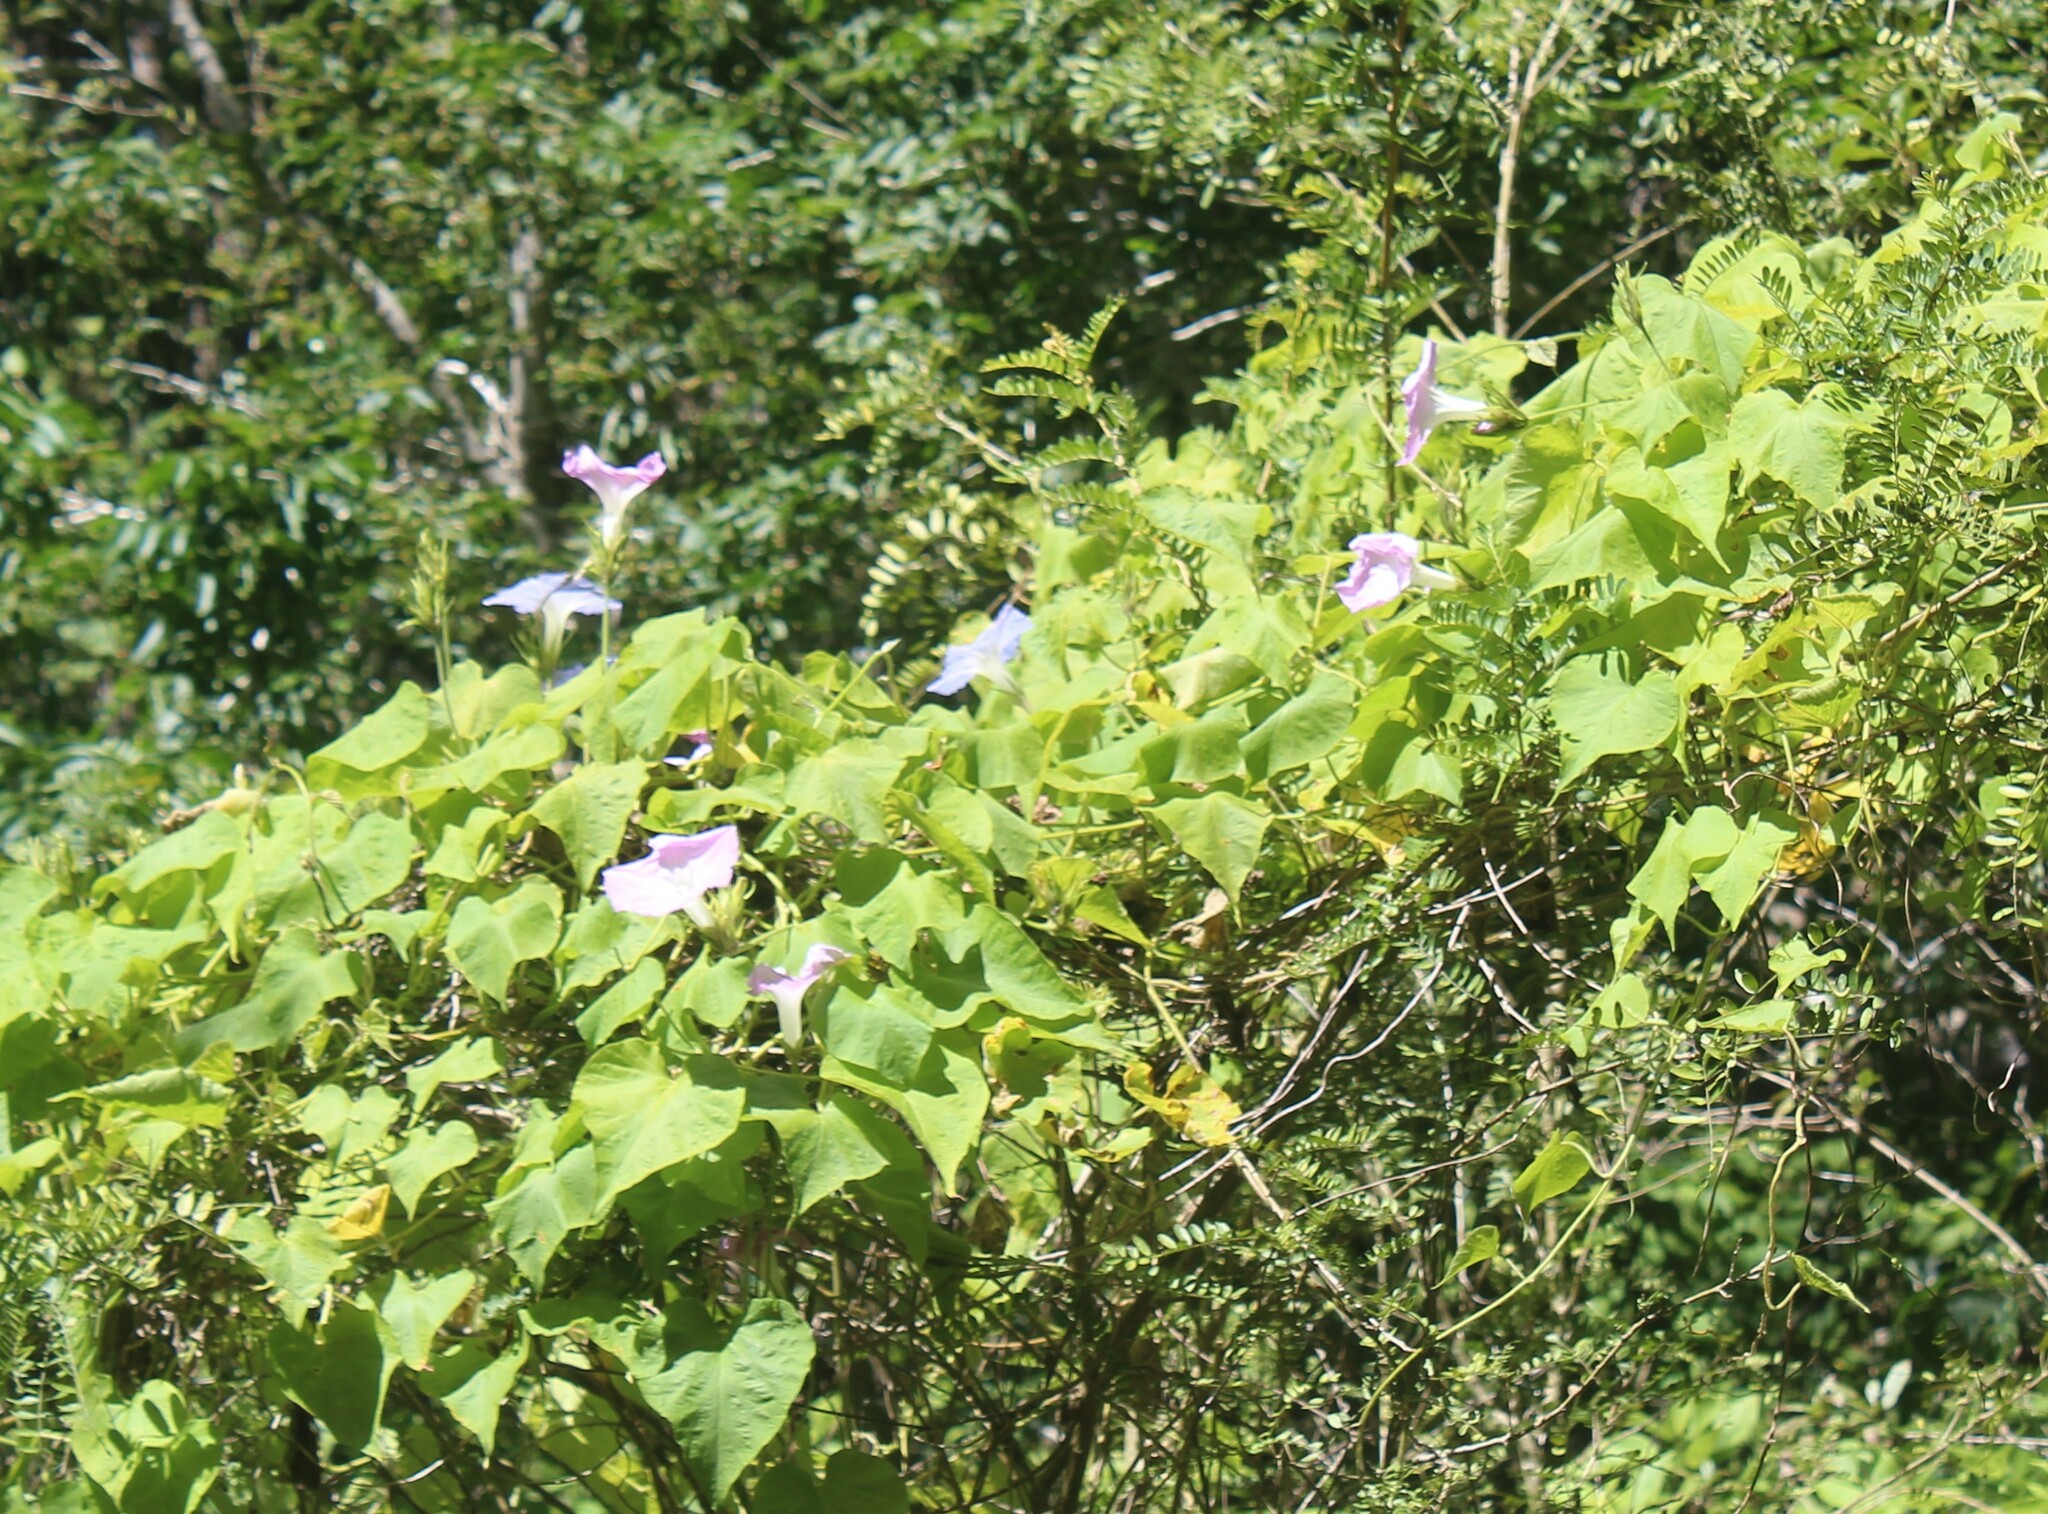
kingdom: Plantae
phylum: Tracheophyta
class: Magnoliopsida
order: Solanales
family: Convolvulaceae
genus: Ipomoea
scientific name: Ipomoea indica
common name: Blue dawnflower
